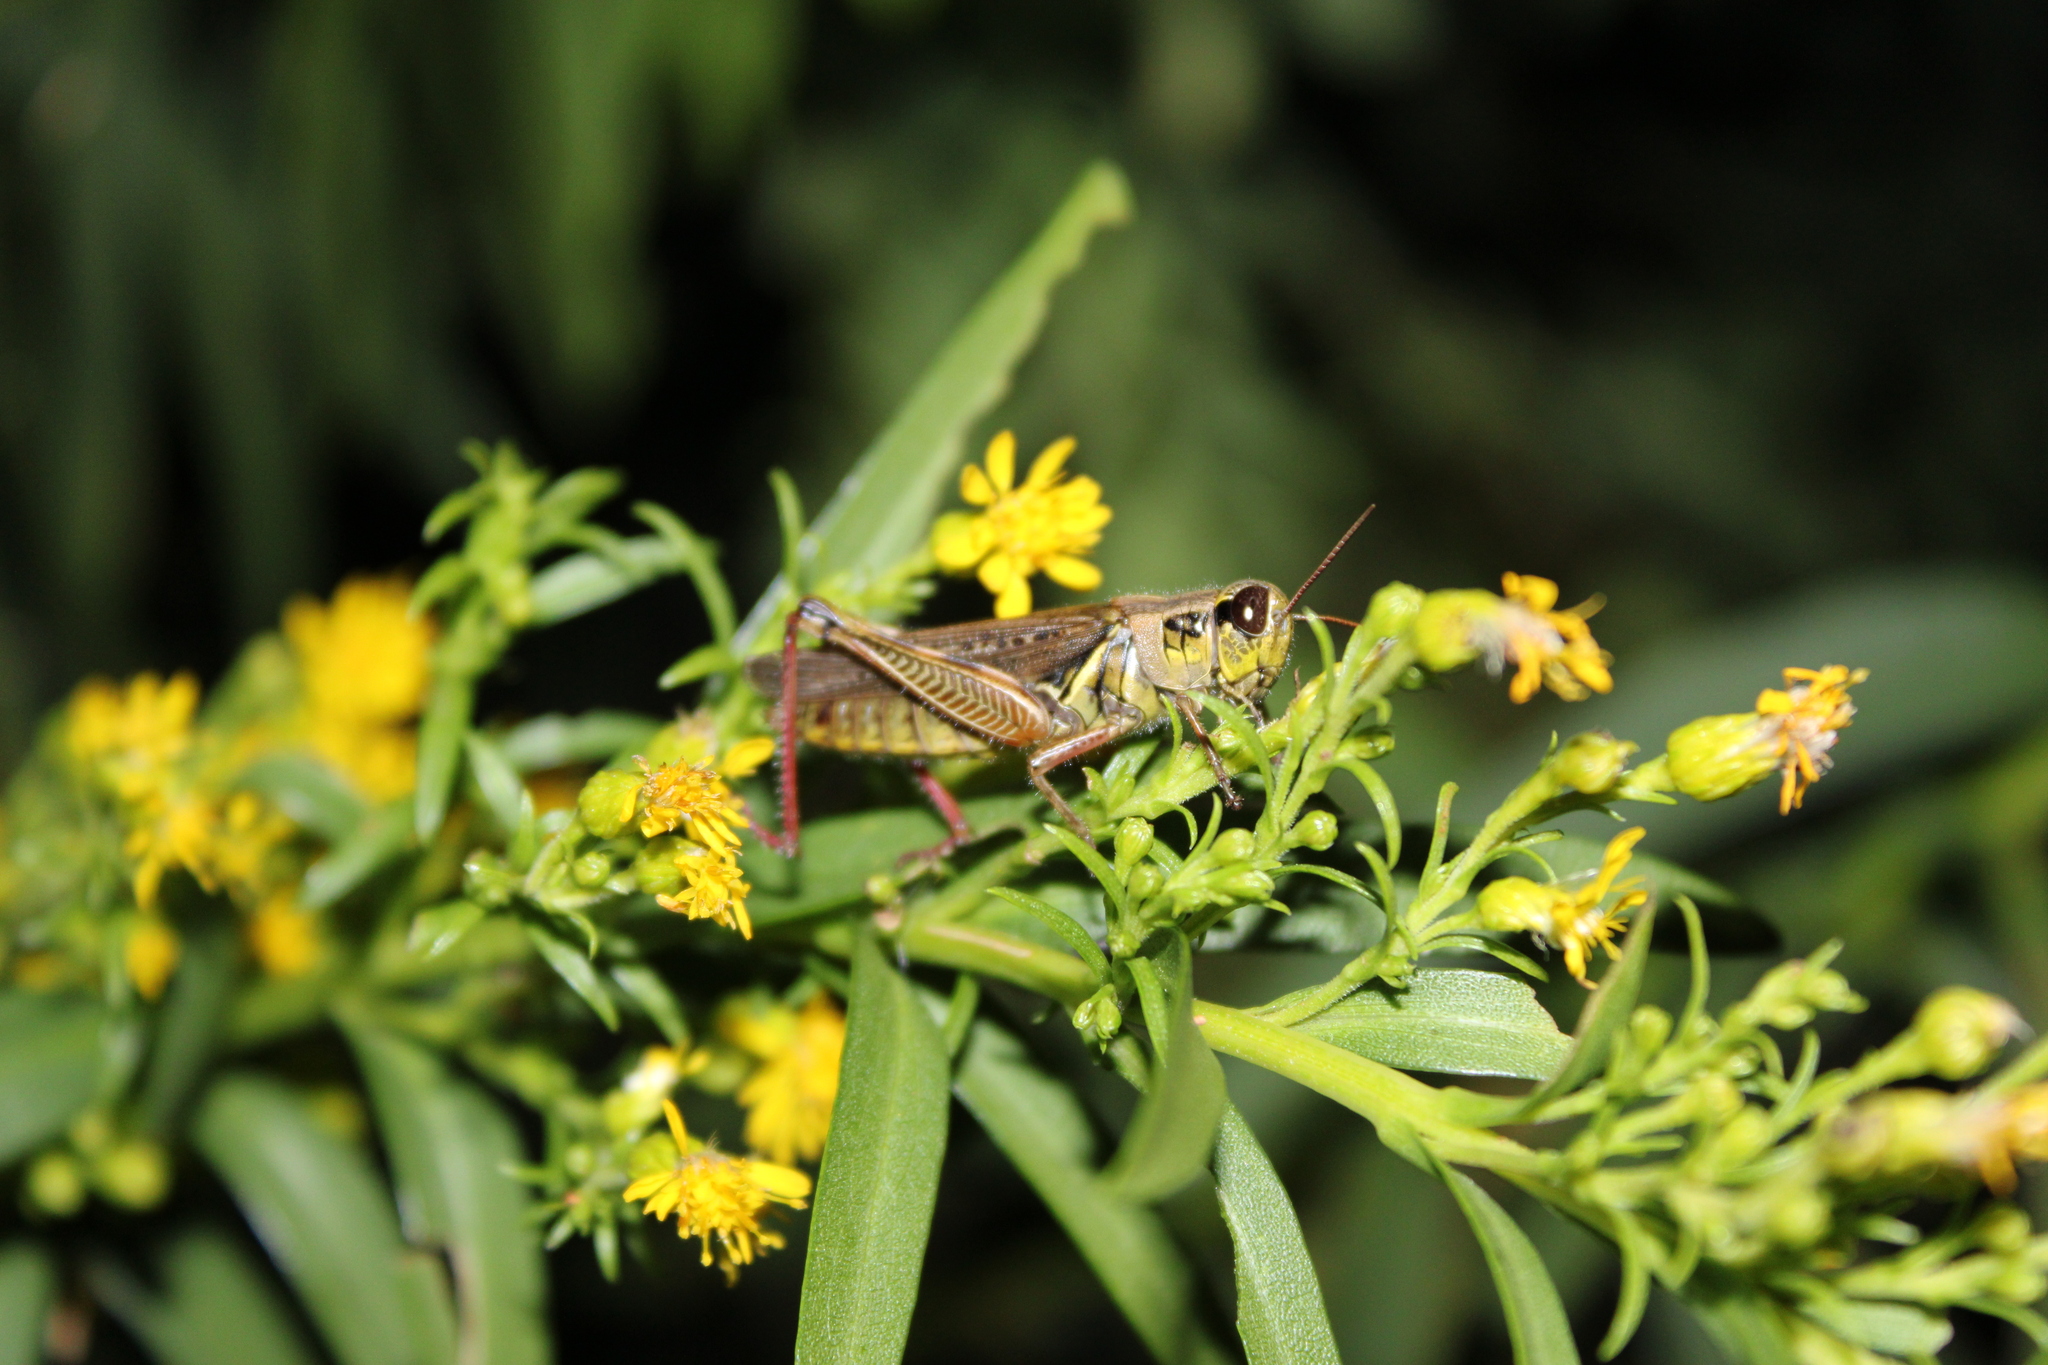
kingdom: Animalia
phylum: Arthropoda
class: Insecta
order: Orthoptera
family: Acrididae
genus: Melanoplus
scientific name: Melanoplus femurrubrum
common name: Red-legged grasshopper
